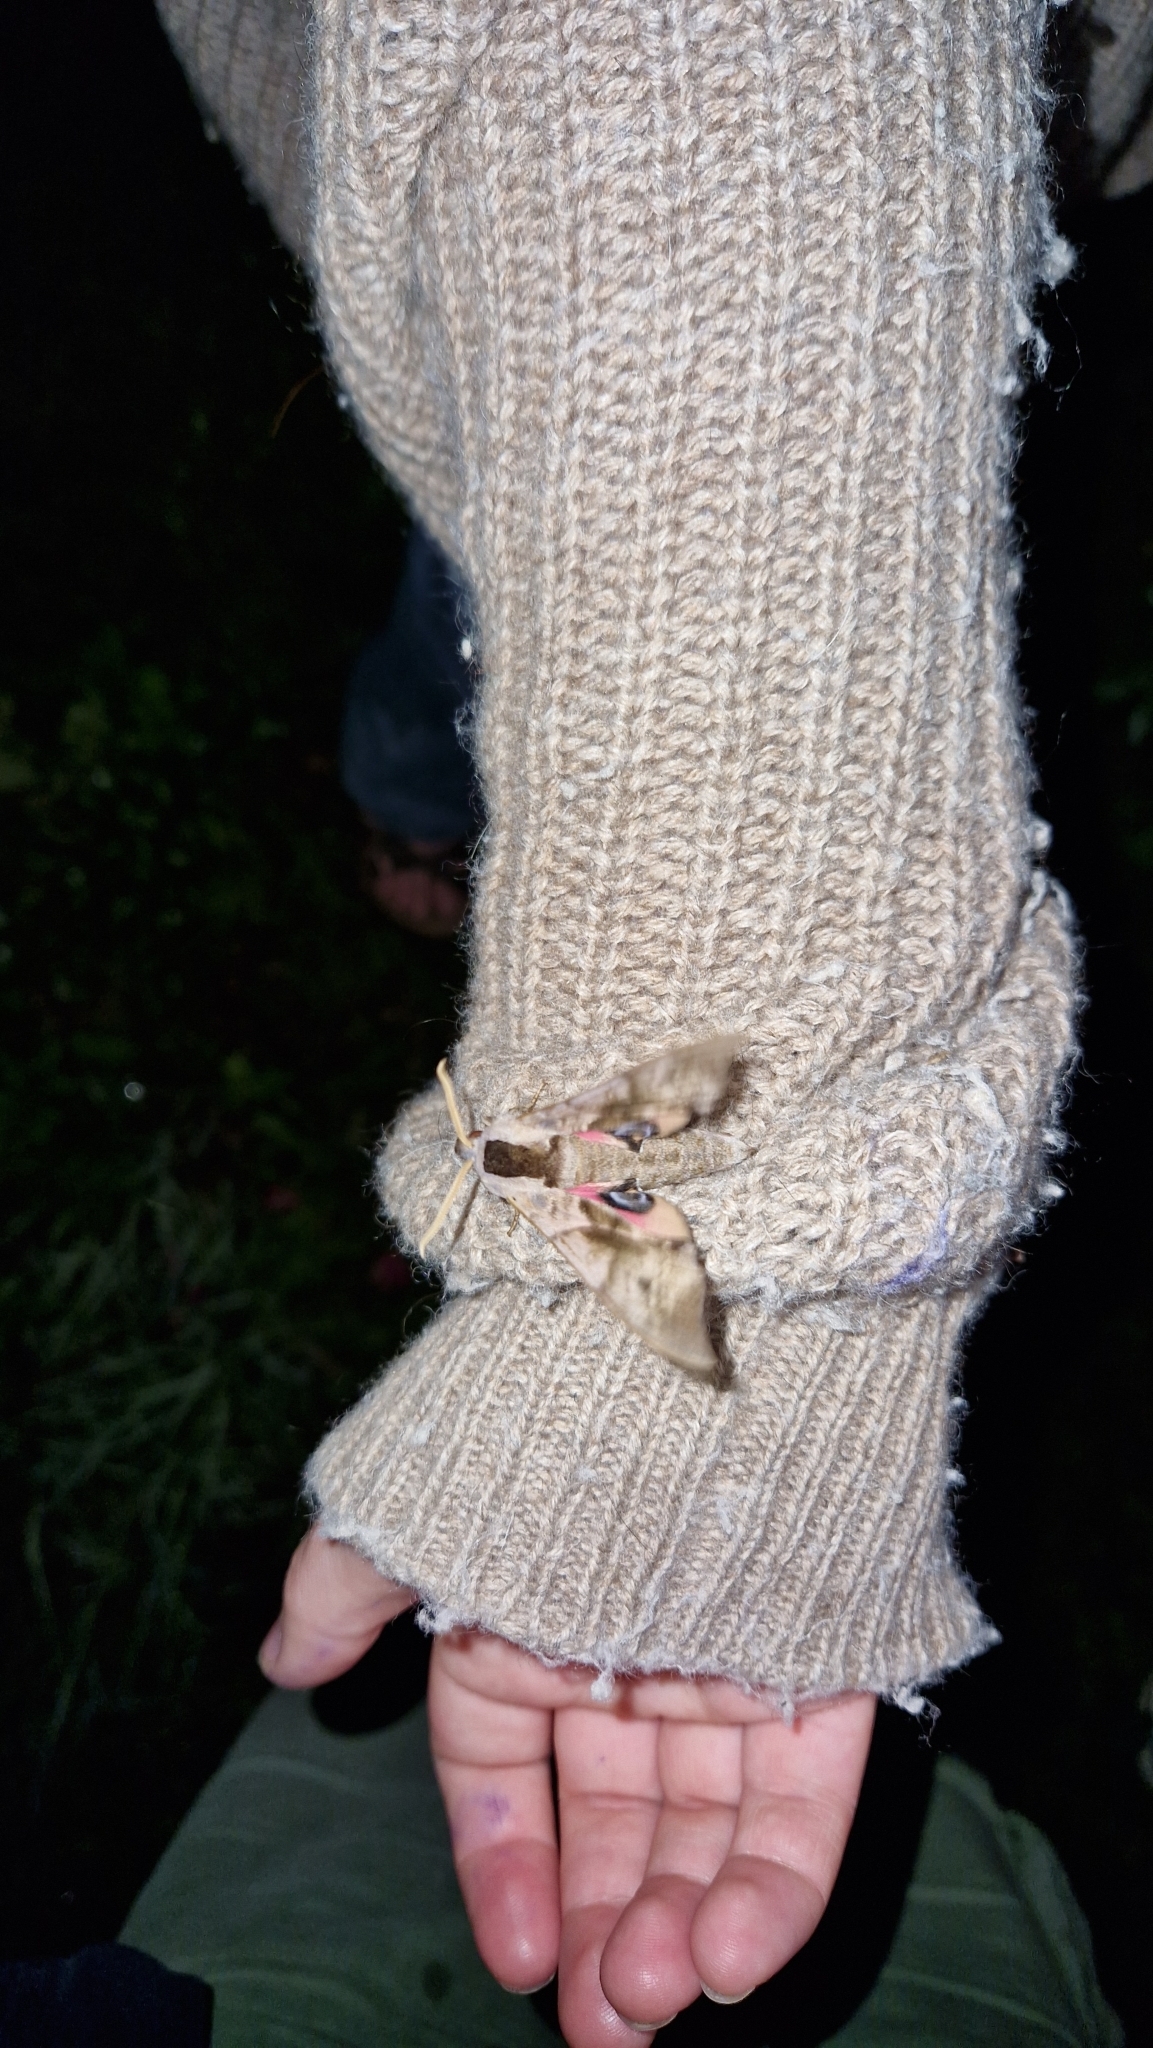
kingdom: Animalia
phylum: Arthropoda
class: Insecta
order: Lepidoptera
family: Sphingidae
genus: Smerinthus
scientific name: Smerinthus ocellata
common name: Eyed hawk-moth
